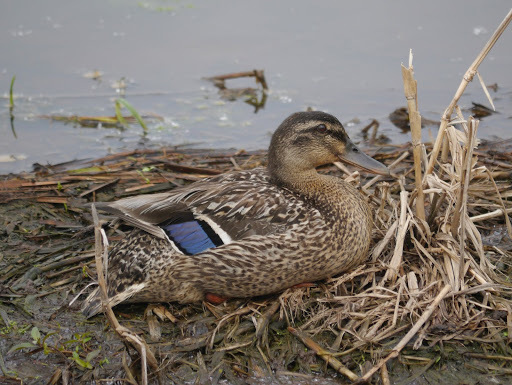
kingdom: Animalia
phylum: Chordata
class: Aves
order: Anseriformes
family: Anatidae
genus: Anas
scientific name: Anas platyrhynchos
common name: Mallard
